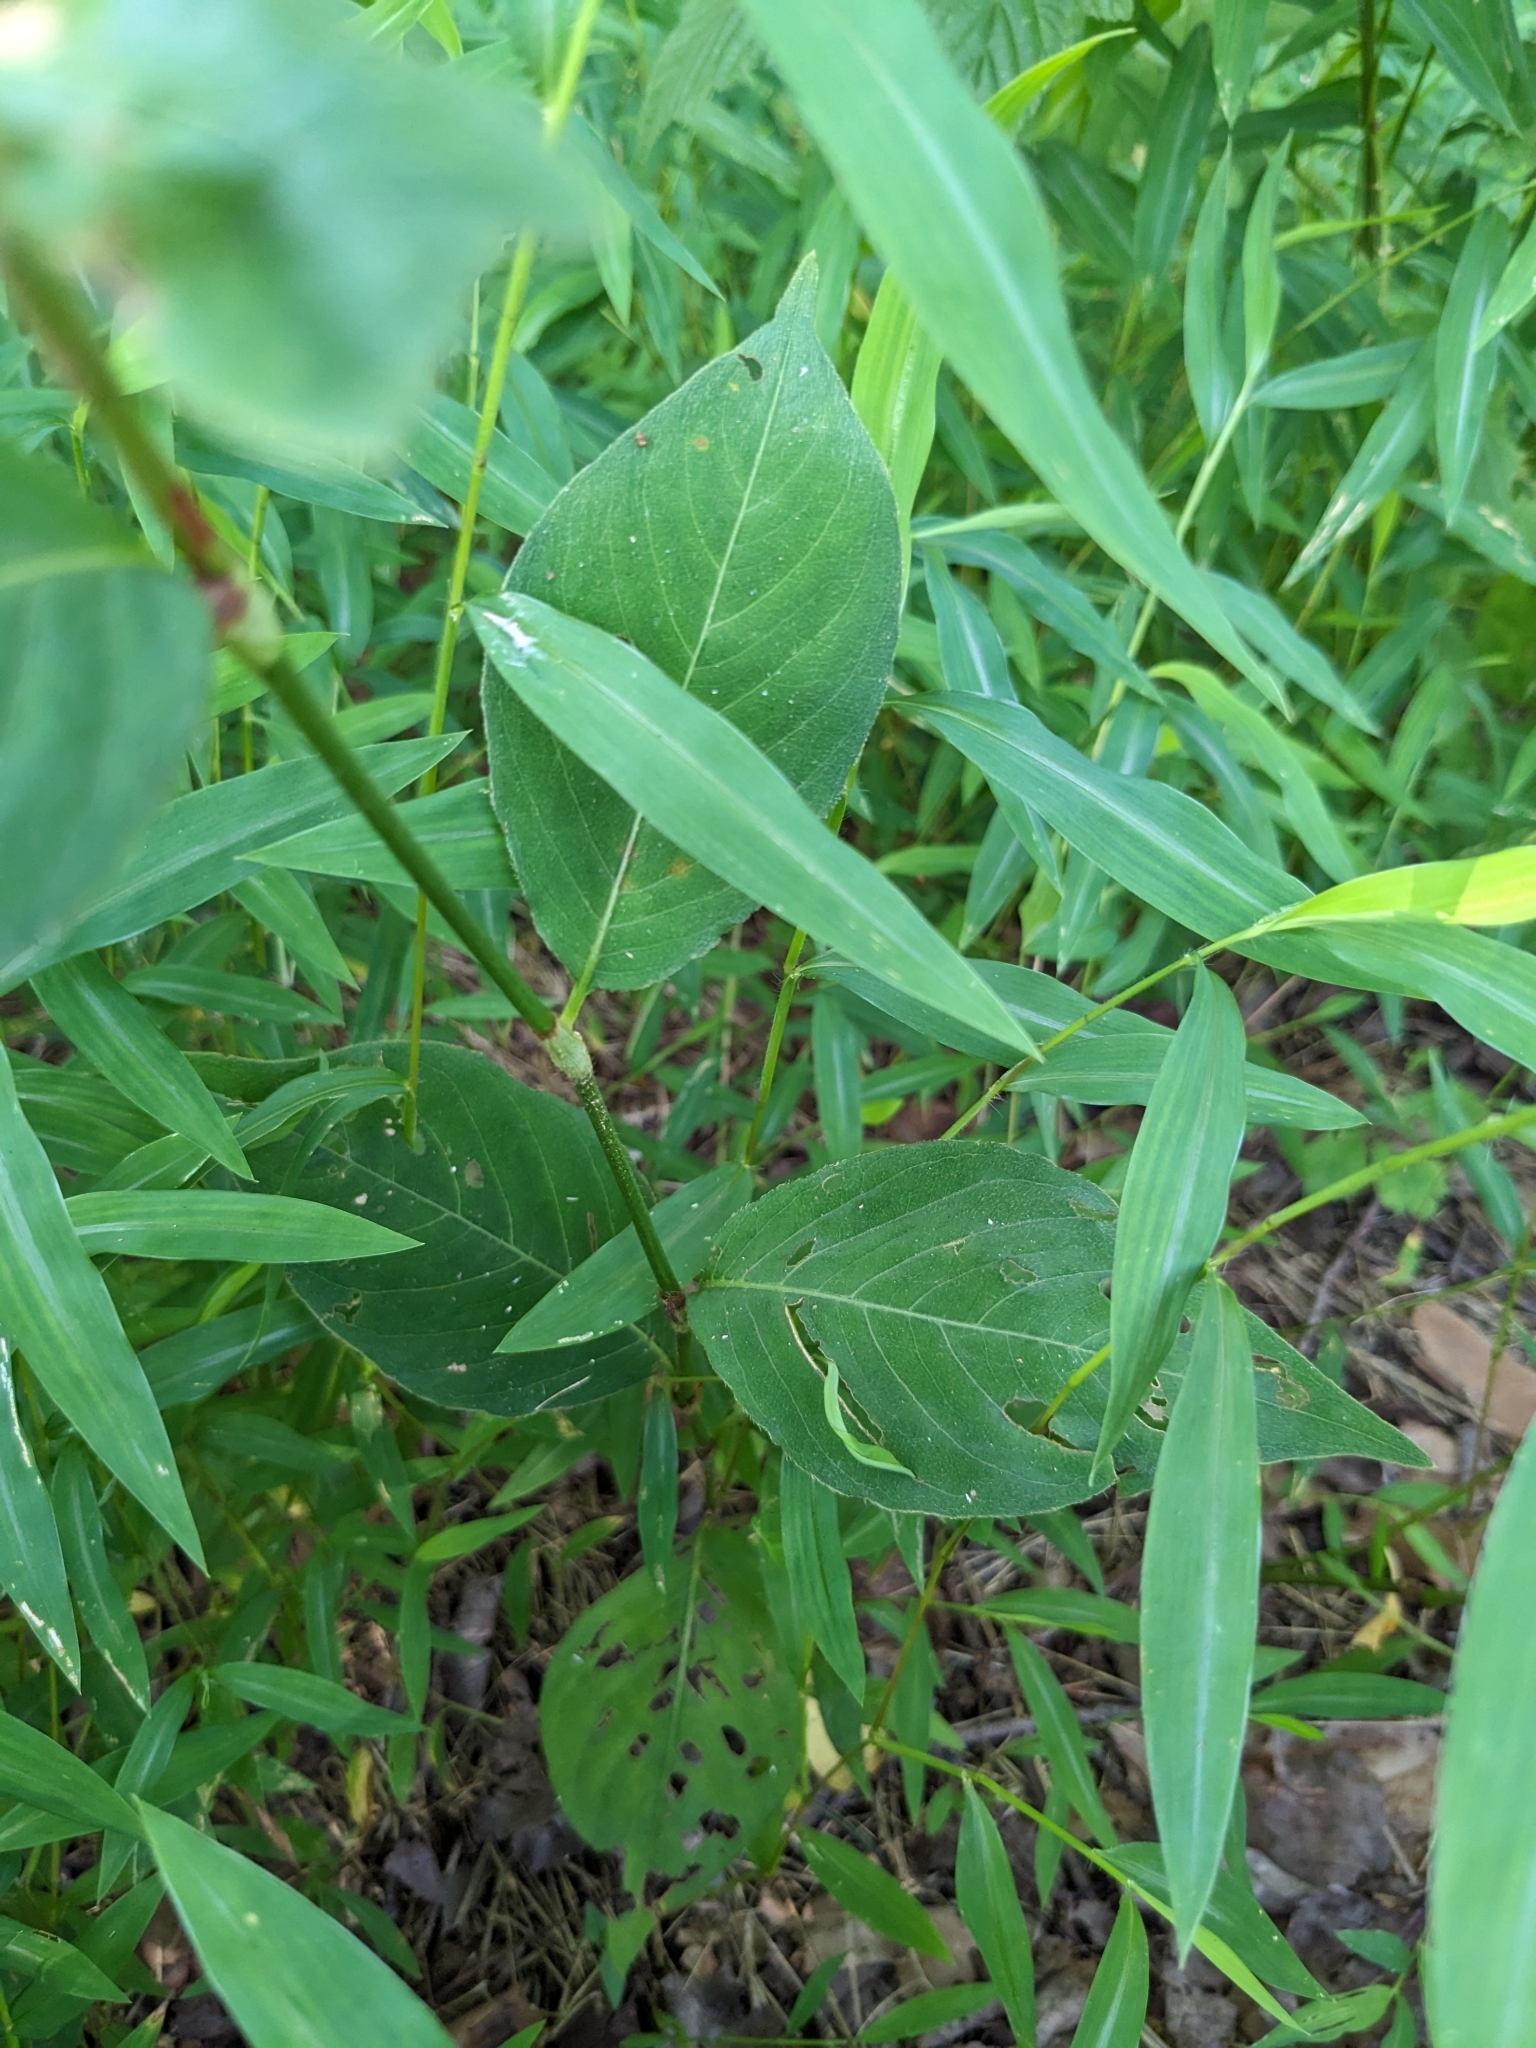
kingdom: Plantae
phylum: Tracheophyta
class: Magnoliopsida
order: Caryophyllales
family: Polygonaceae
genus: Persicaria
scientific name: Persicaria virginiana
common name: Jumpseed
